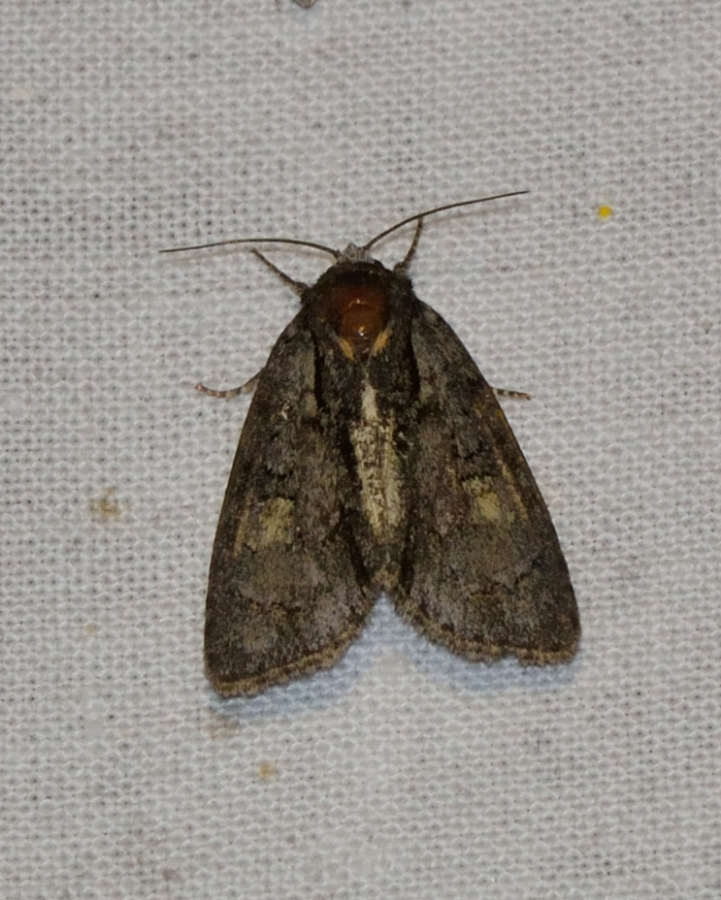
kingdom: Animalia
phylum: Arthropoda
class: Insecta
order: Lepidoptera
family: Noctuidae
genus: Acronicta
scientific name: Acronicta strigosa
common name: Marsh dagger
